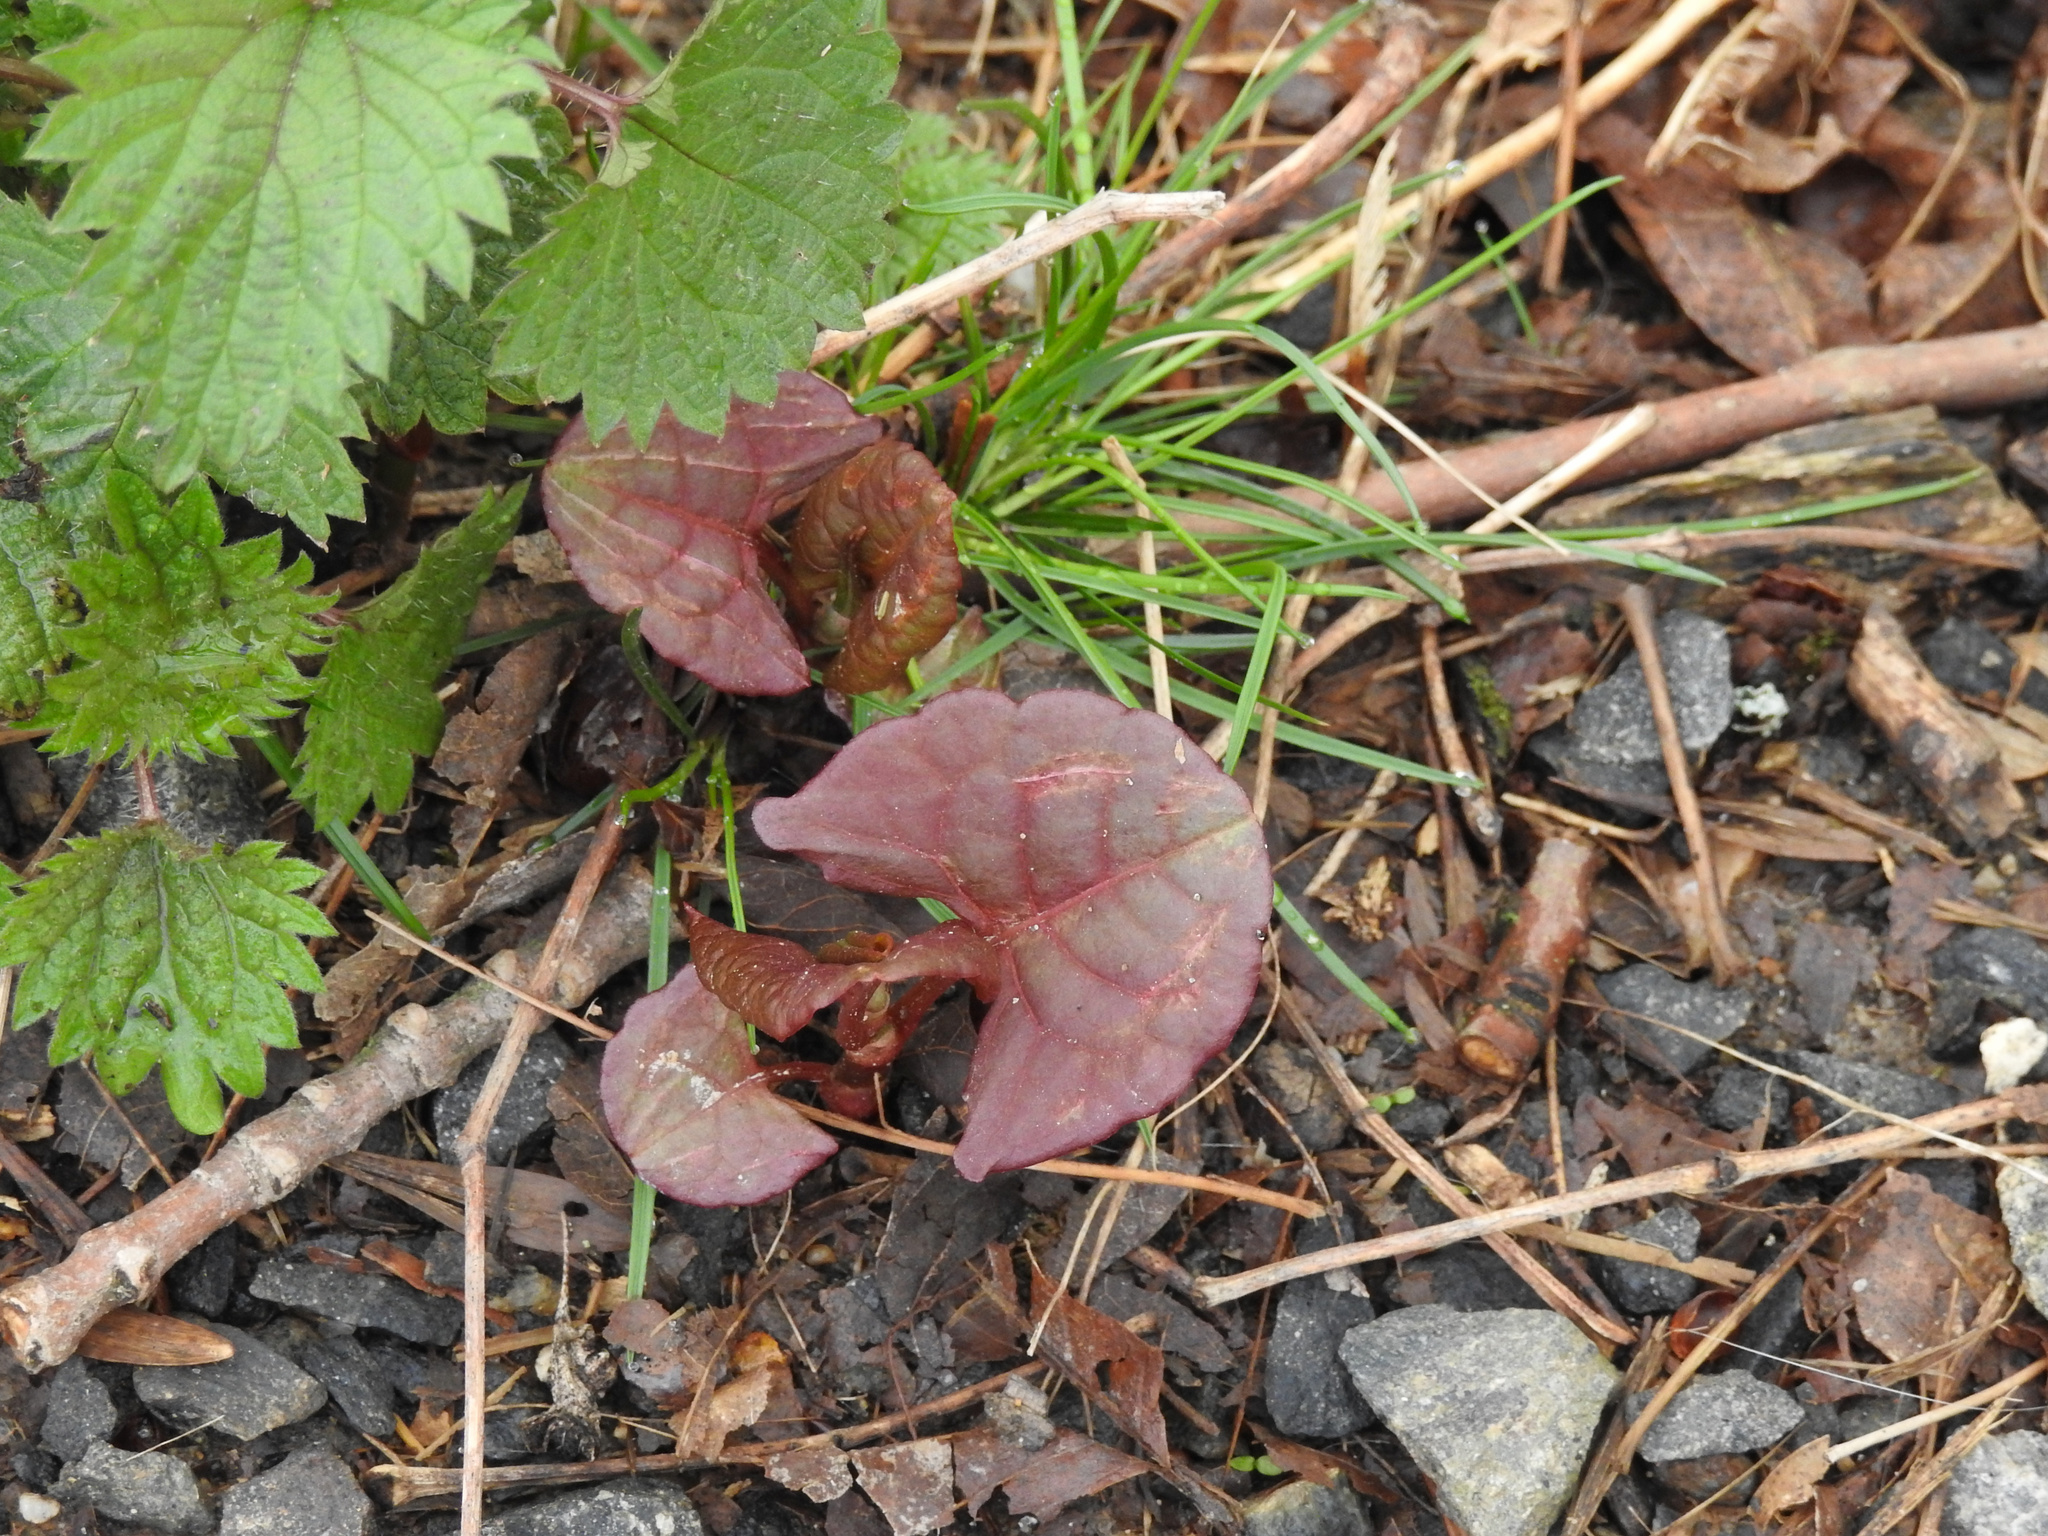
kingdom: Plantae
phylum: Tracheophyta
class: Magnoliopsida
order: Caryophyllales
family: Polygonaceae
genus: Reynoutria
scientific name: Reynoutria japonica
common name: Japanese knotweed
